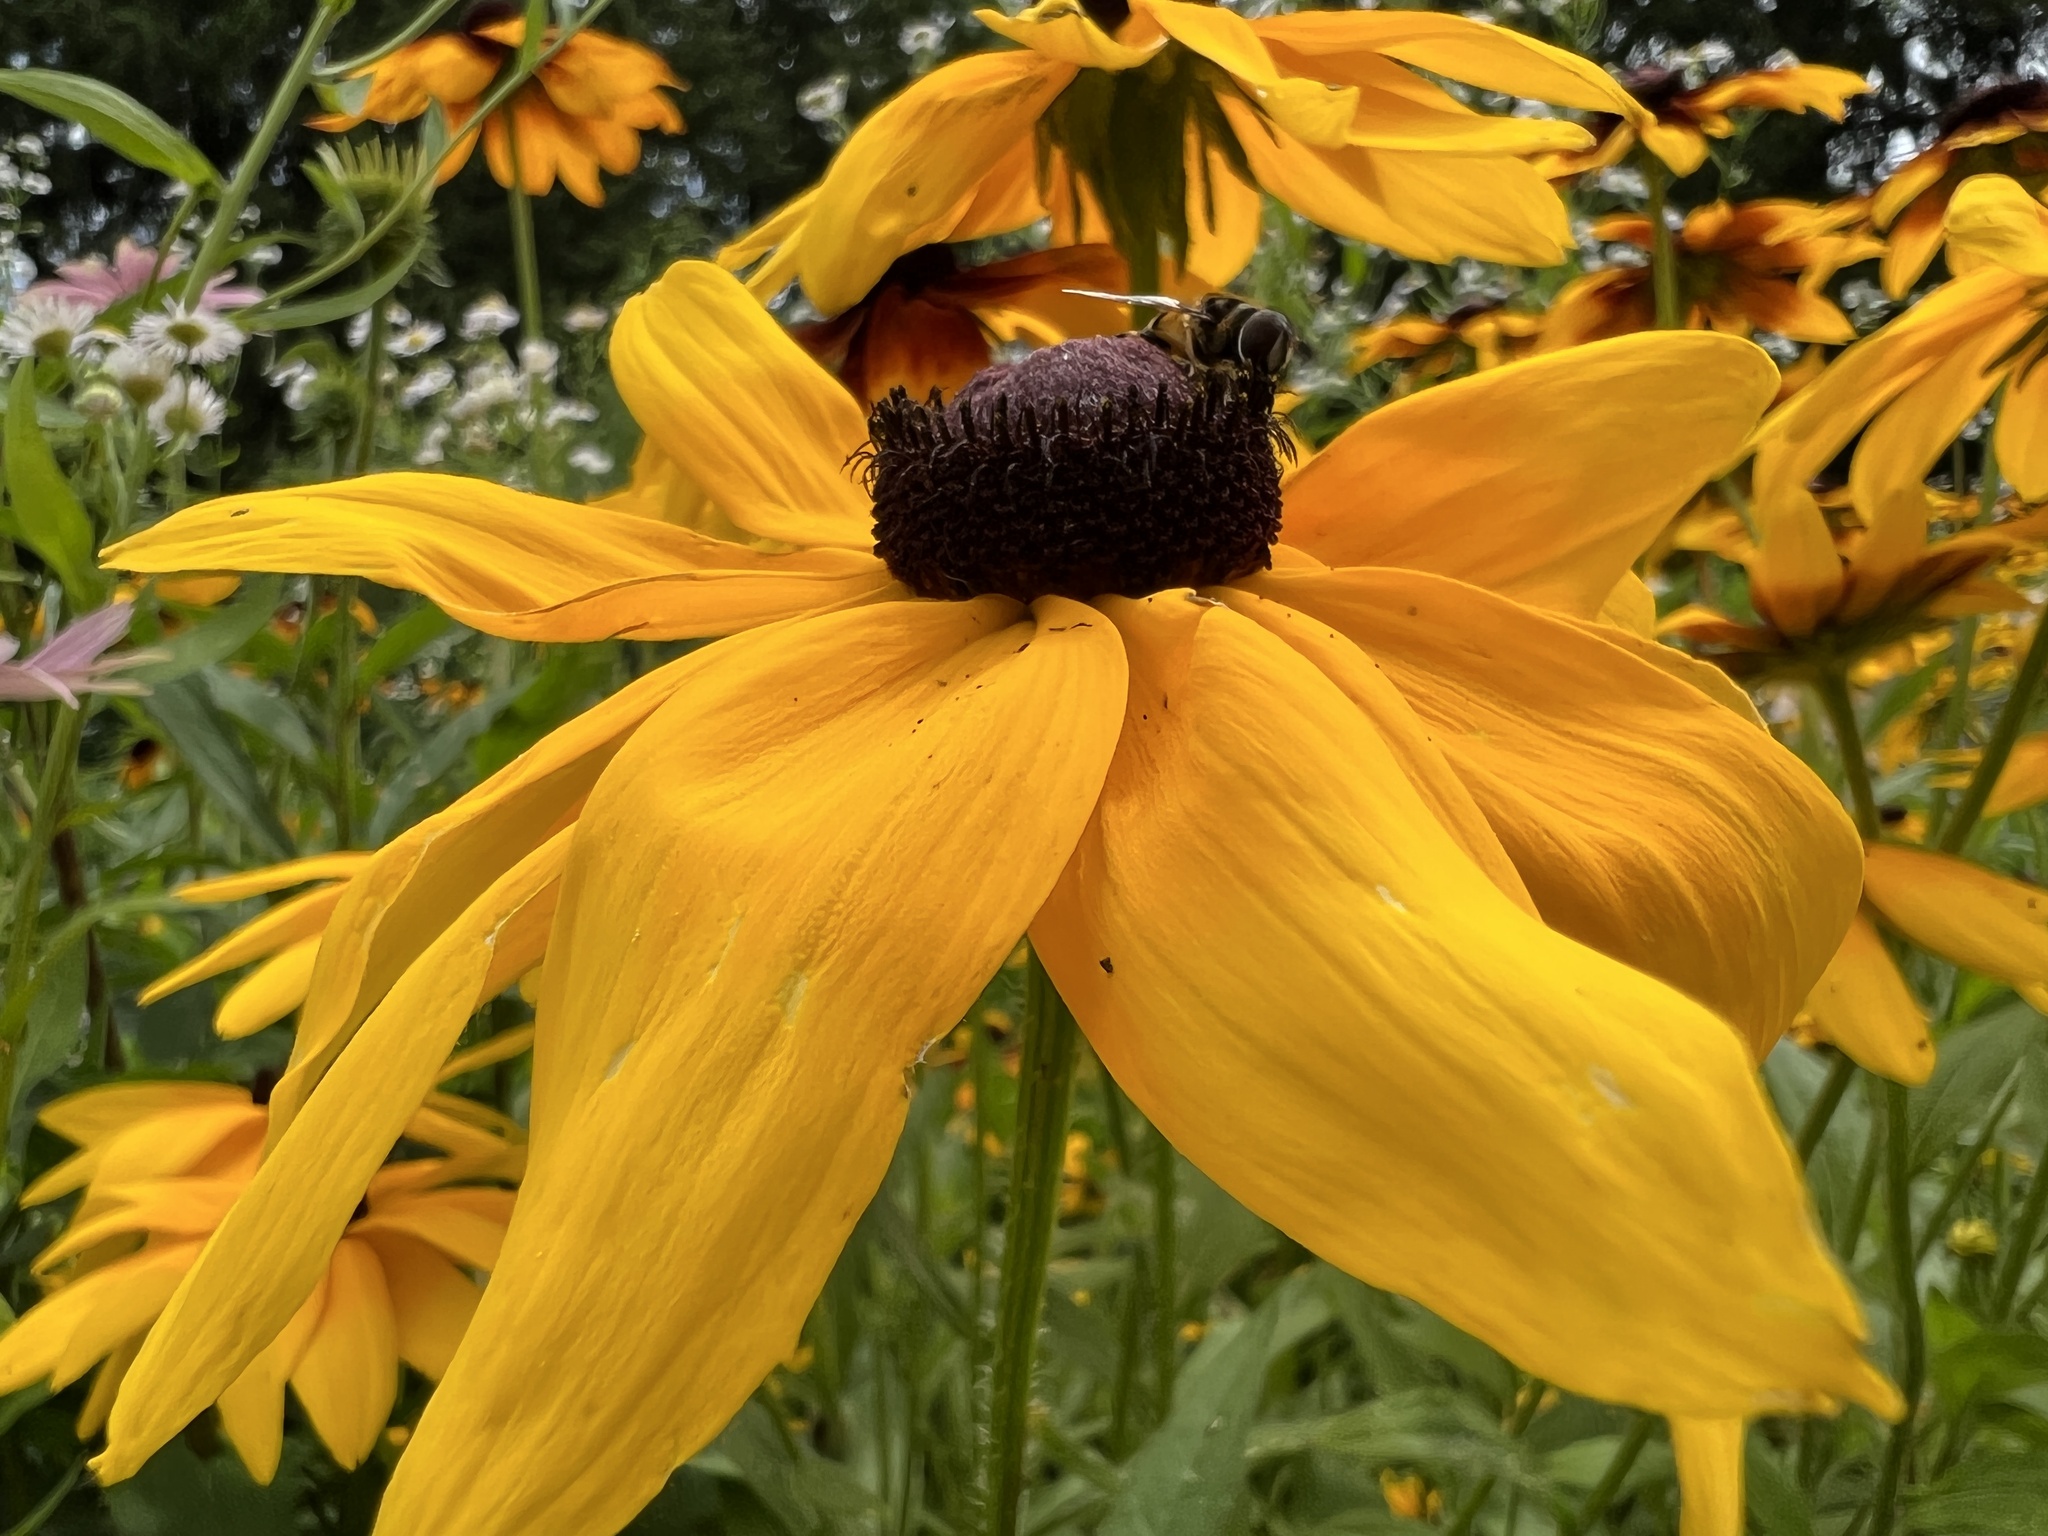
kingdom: Animalia
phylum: Arthropoda
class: Insecta
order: Diptera
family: Syrphidae
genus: Eristalis
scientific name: Eristalis transversa
